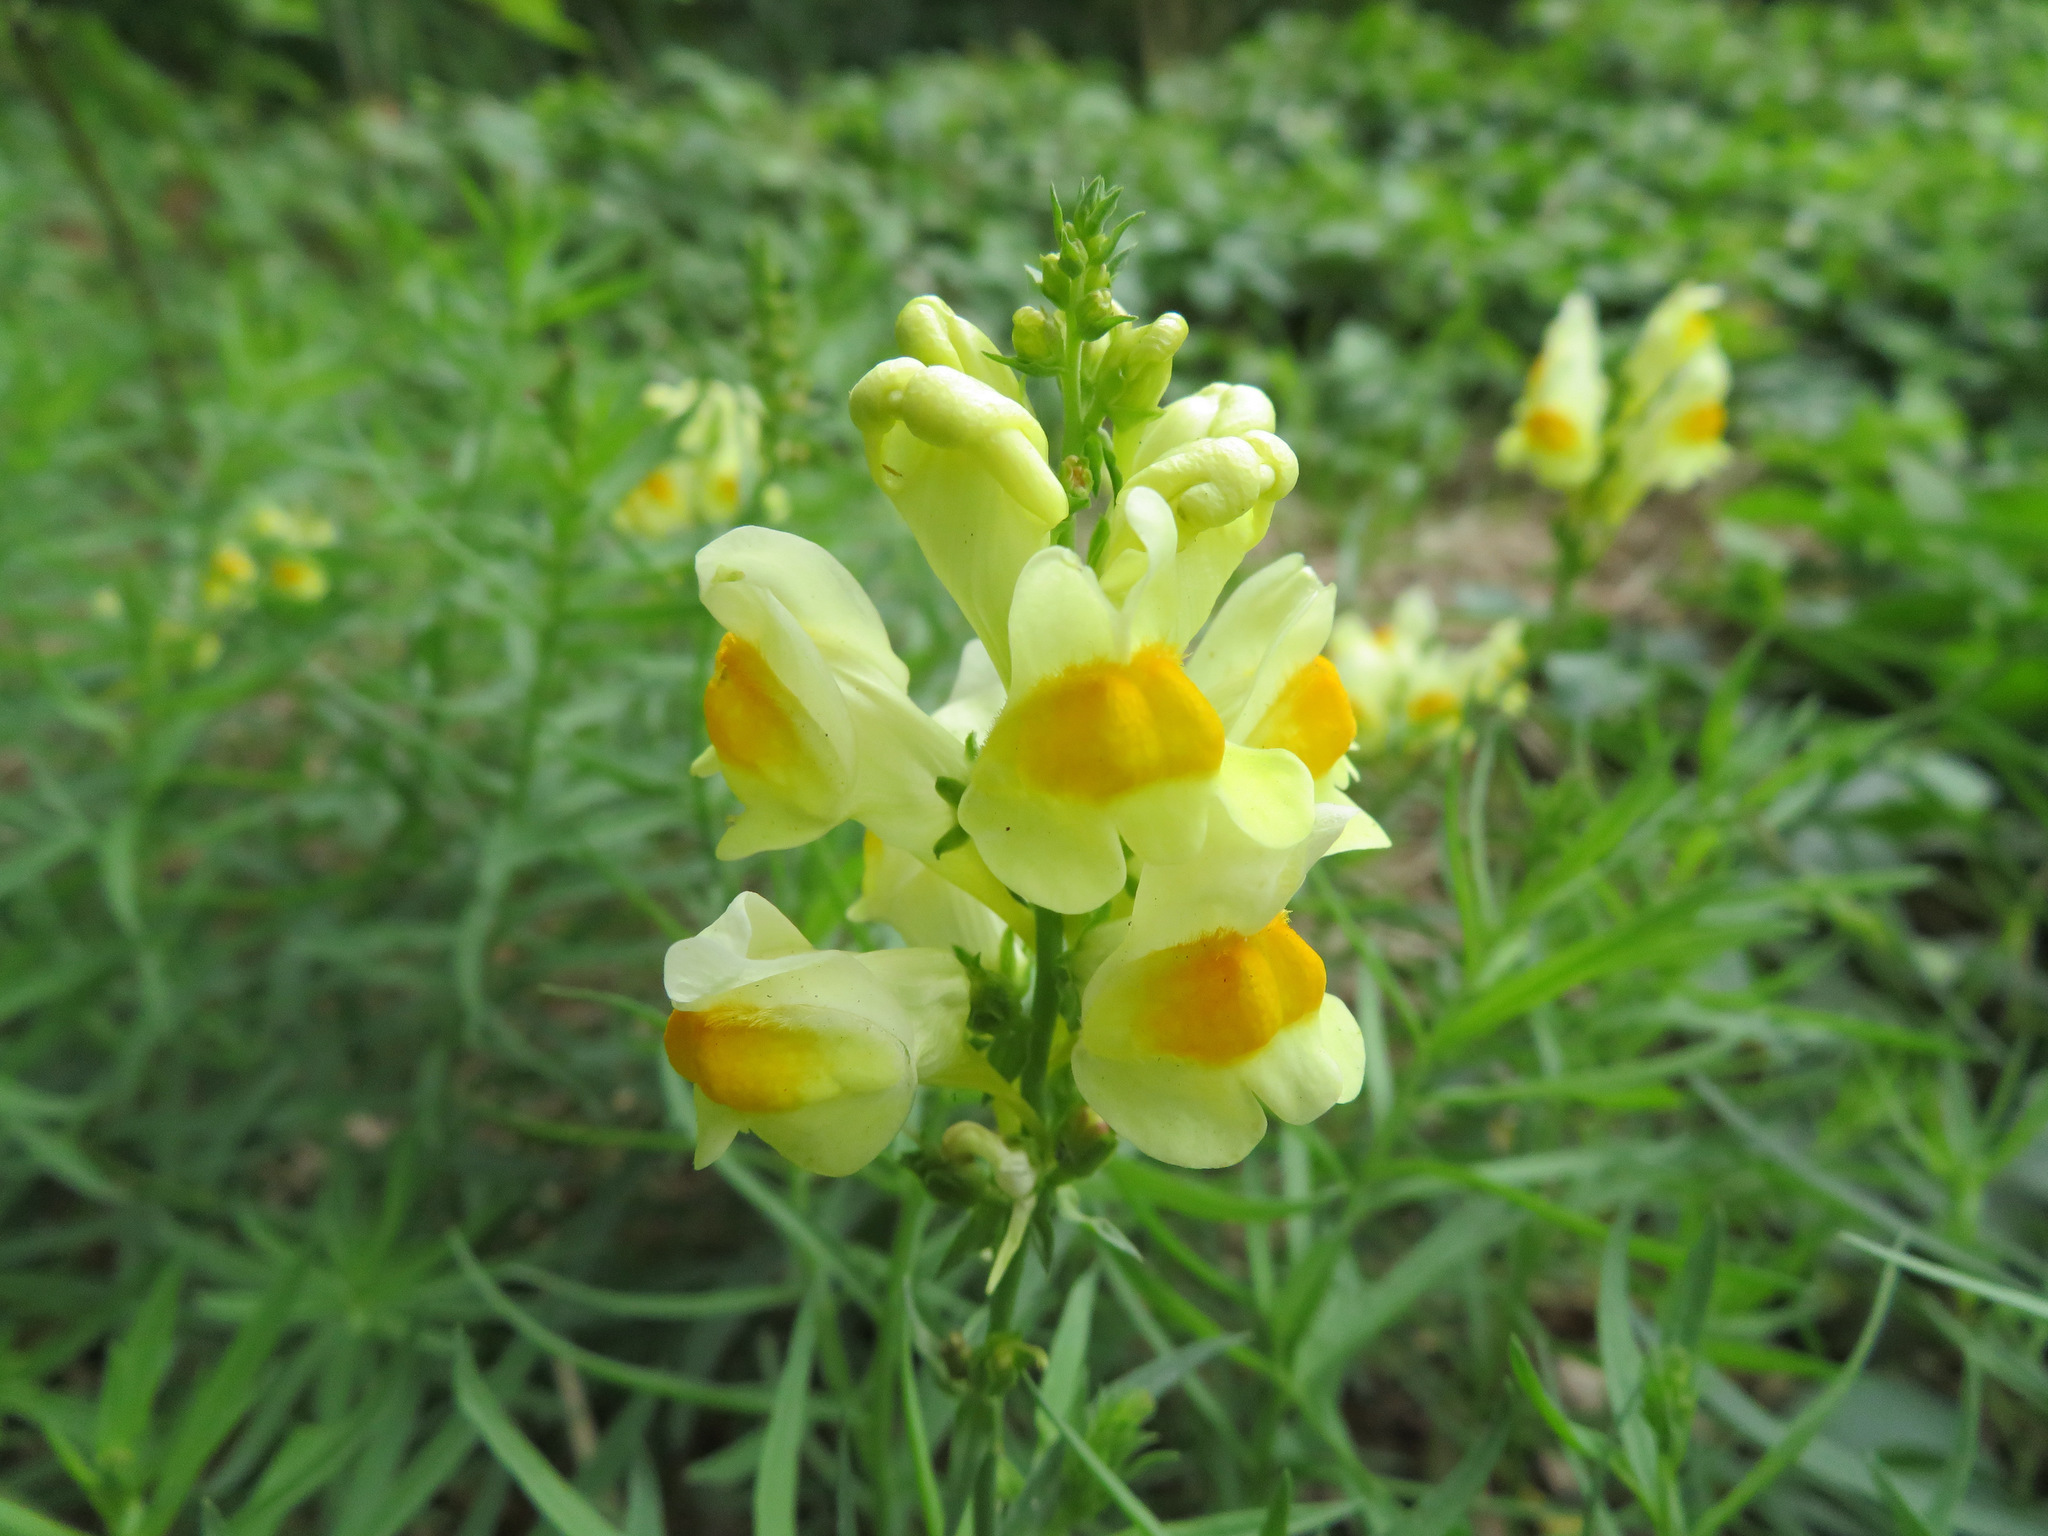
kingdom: Plantae
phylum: Tracheophyta
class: Magnoliopsida
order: Lamiales
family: Plantaginaceae
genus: Linaria
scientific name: Linaria vulgaris
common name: Butter and eggs
